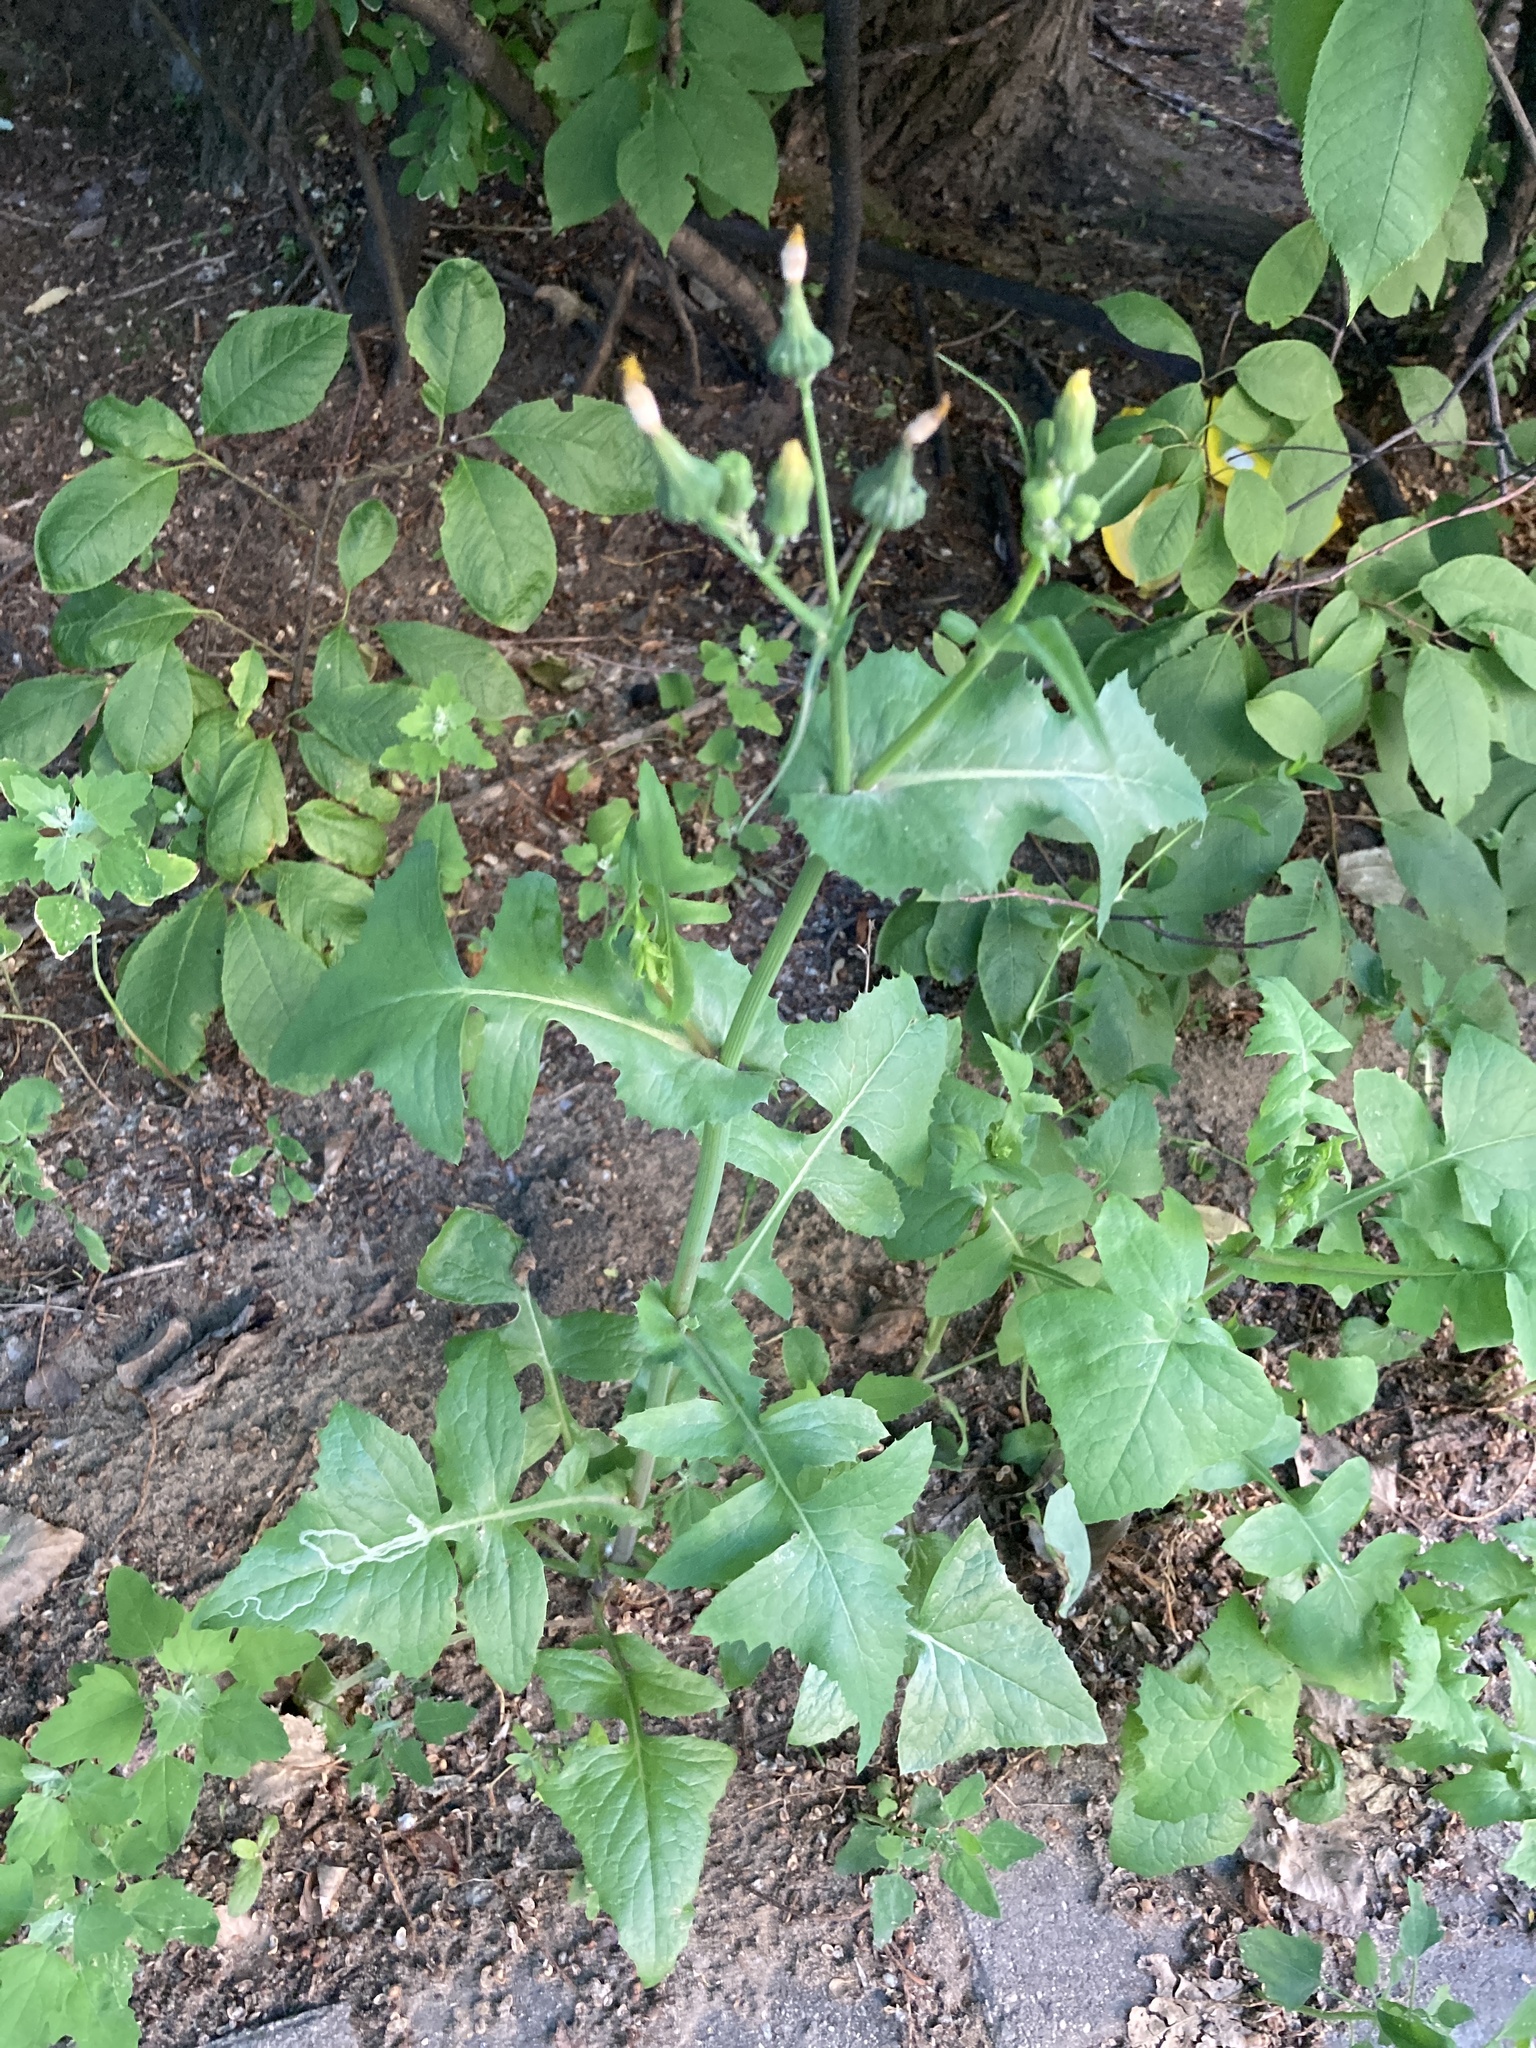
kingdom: Plantae
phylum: Tracheophyta
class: Magnoliopsida
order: Asterales
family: Asteraceae
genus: Sonchus
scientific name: Sonchus oleraceus
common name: Common sowthistle
